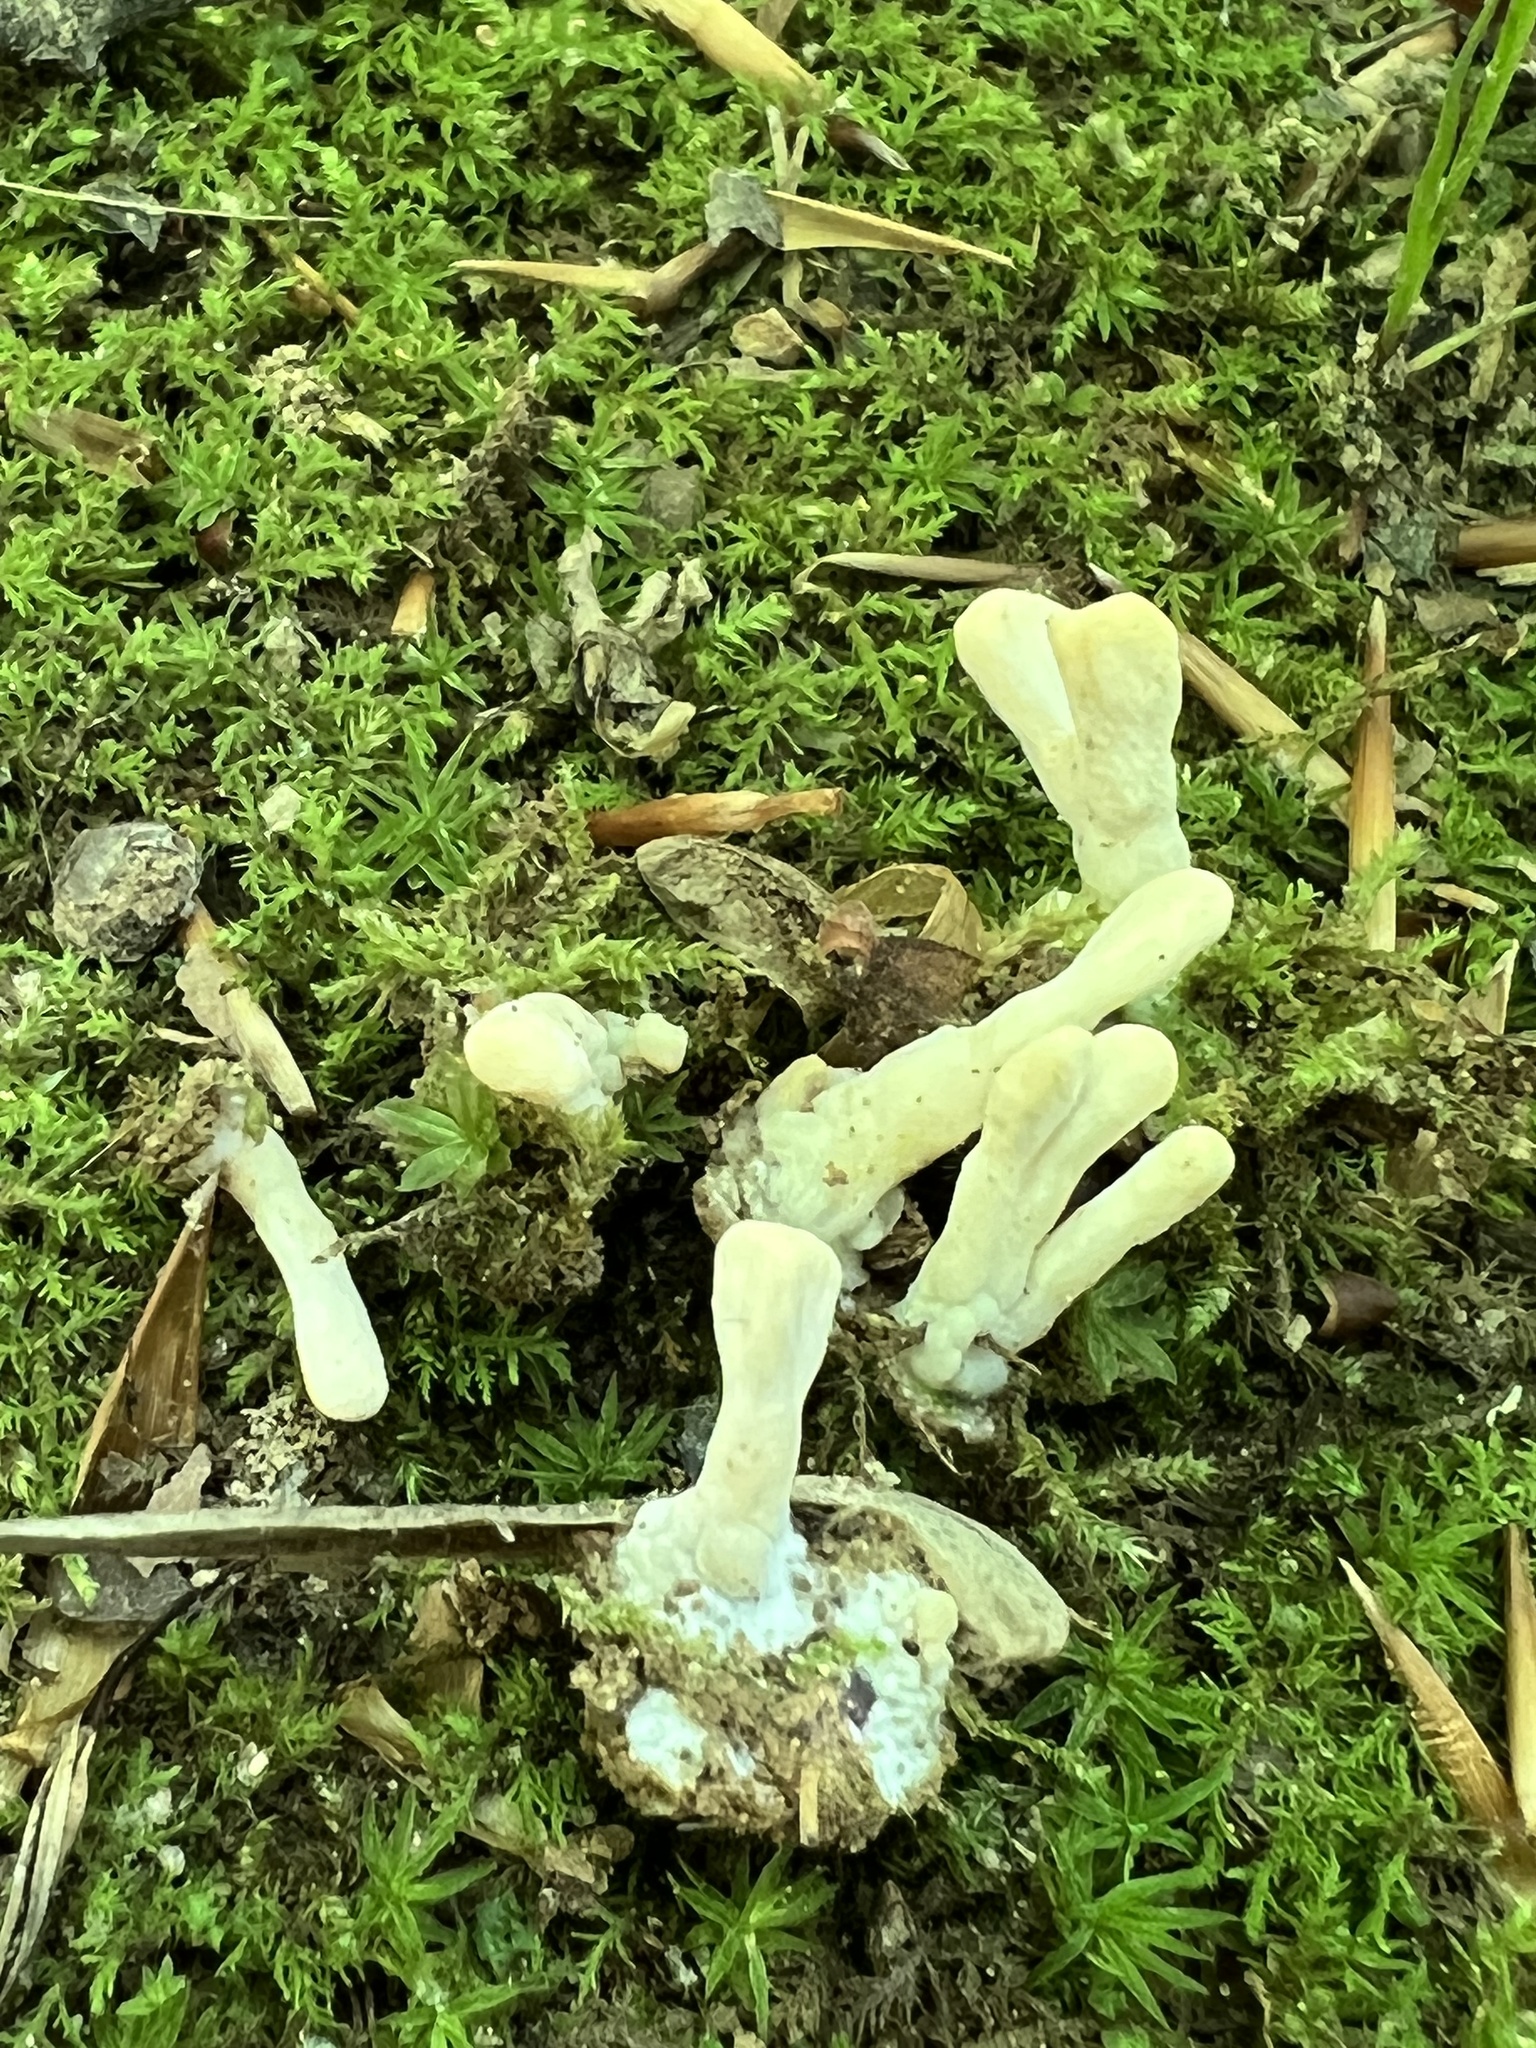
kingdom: Fungi
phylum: Basidiomycota
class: Agaricomycetes
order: Sebacinales
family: Sebacinaceae
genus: Sebacina
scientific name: Sebacina schweinitzii
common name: Jellied false coral fungus
